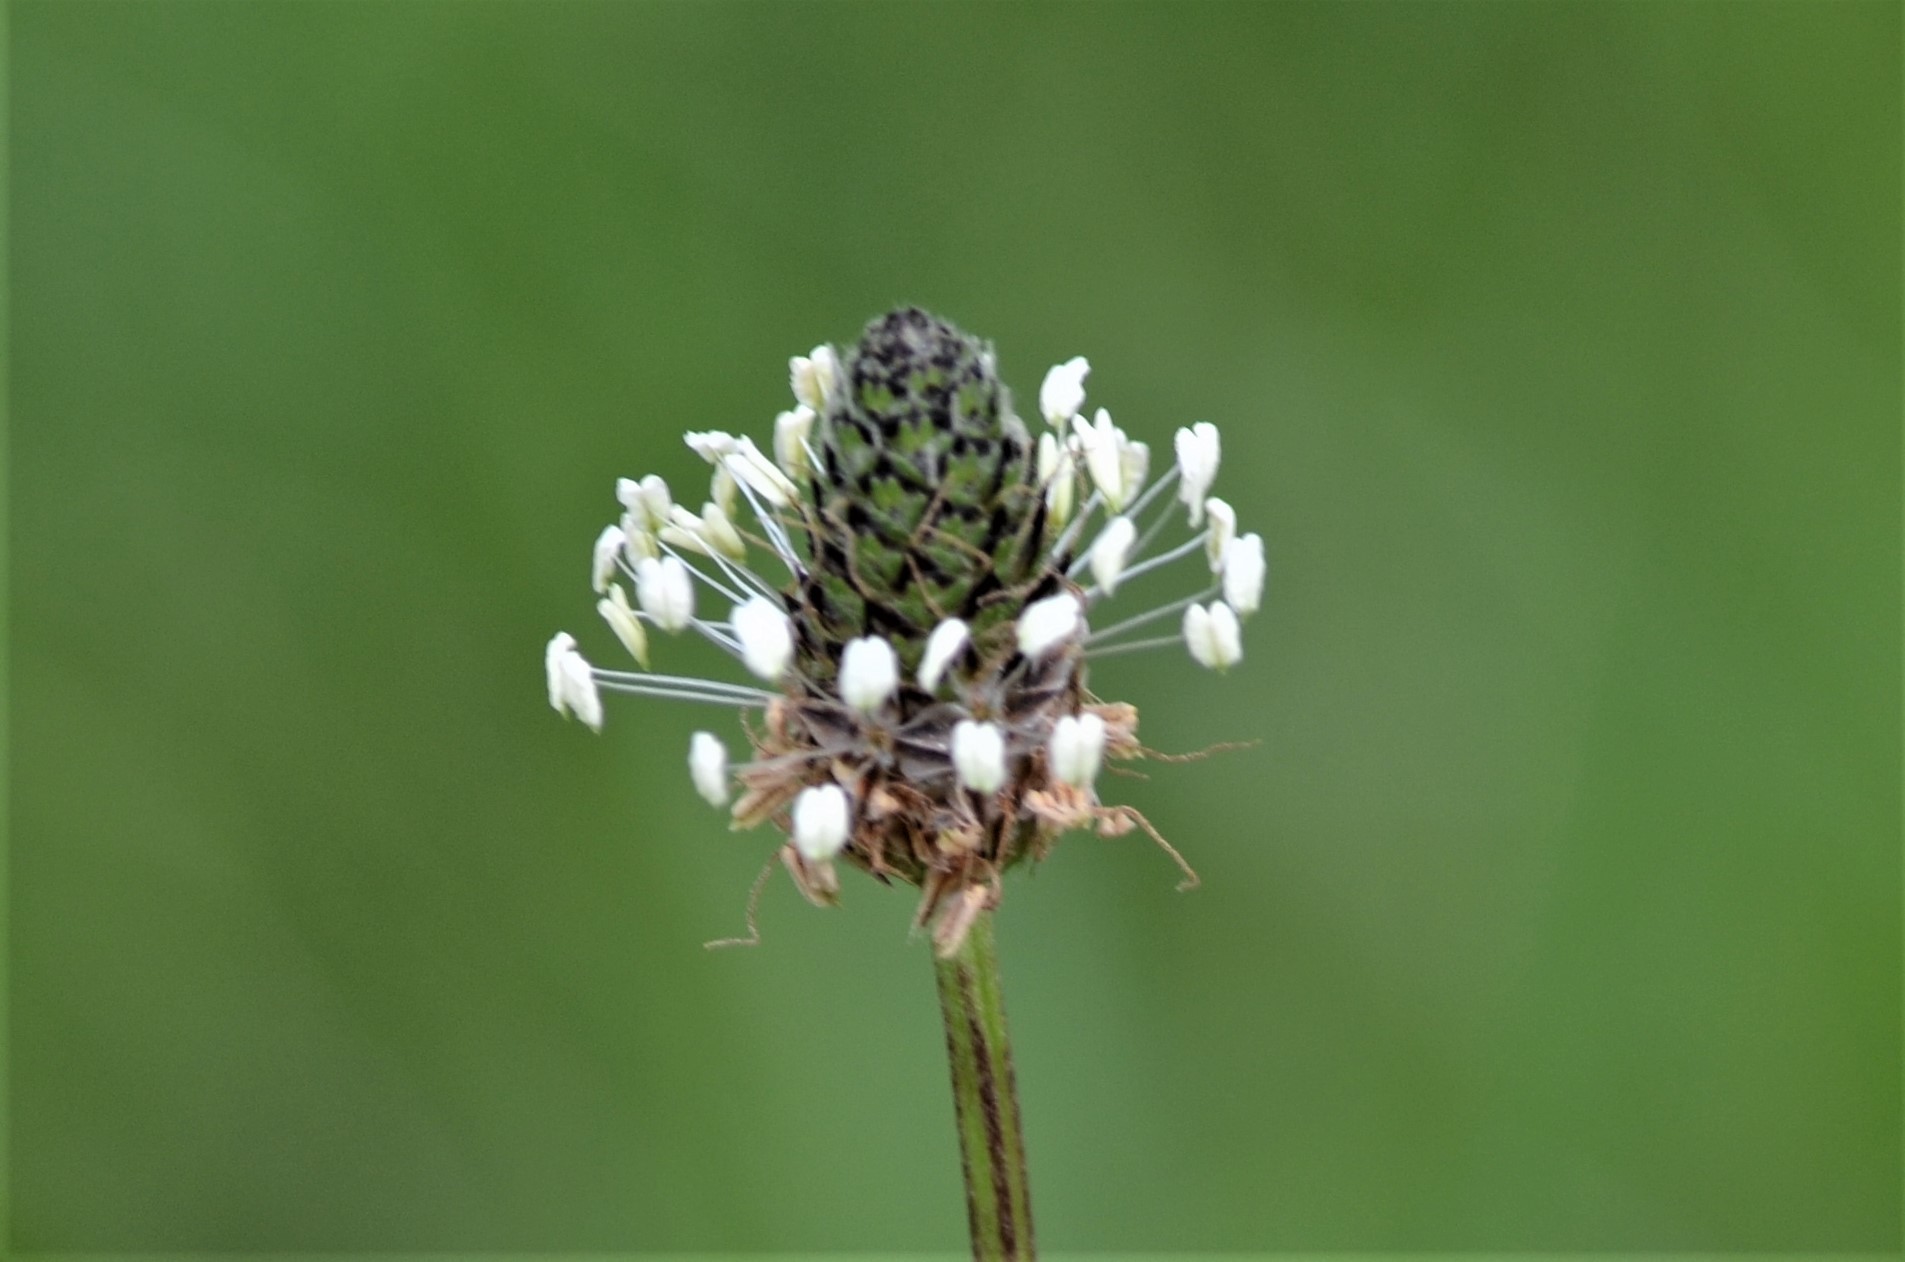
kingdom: Plantae
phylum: Tracheophyta
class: Magnoliopsida
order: Lamiales
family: Plantaginaceae
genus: Plantago
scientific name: Plantago lanceolata
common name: Ribwort plantain
